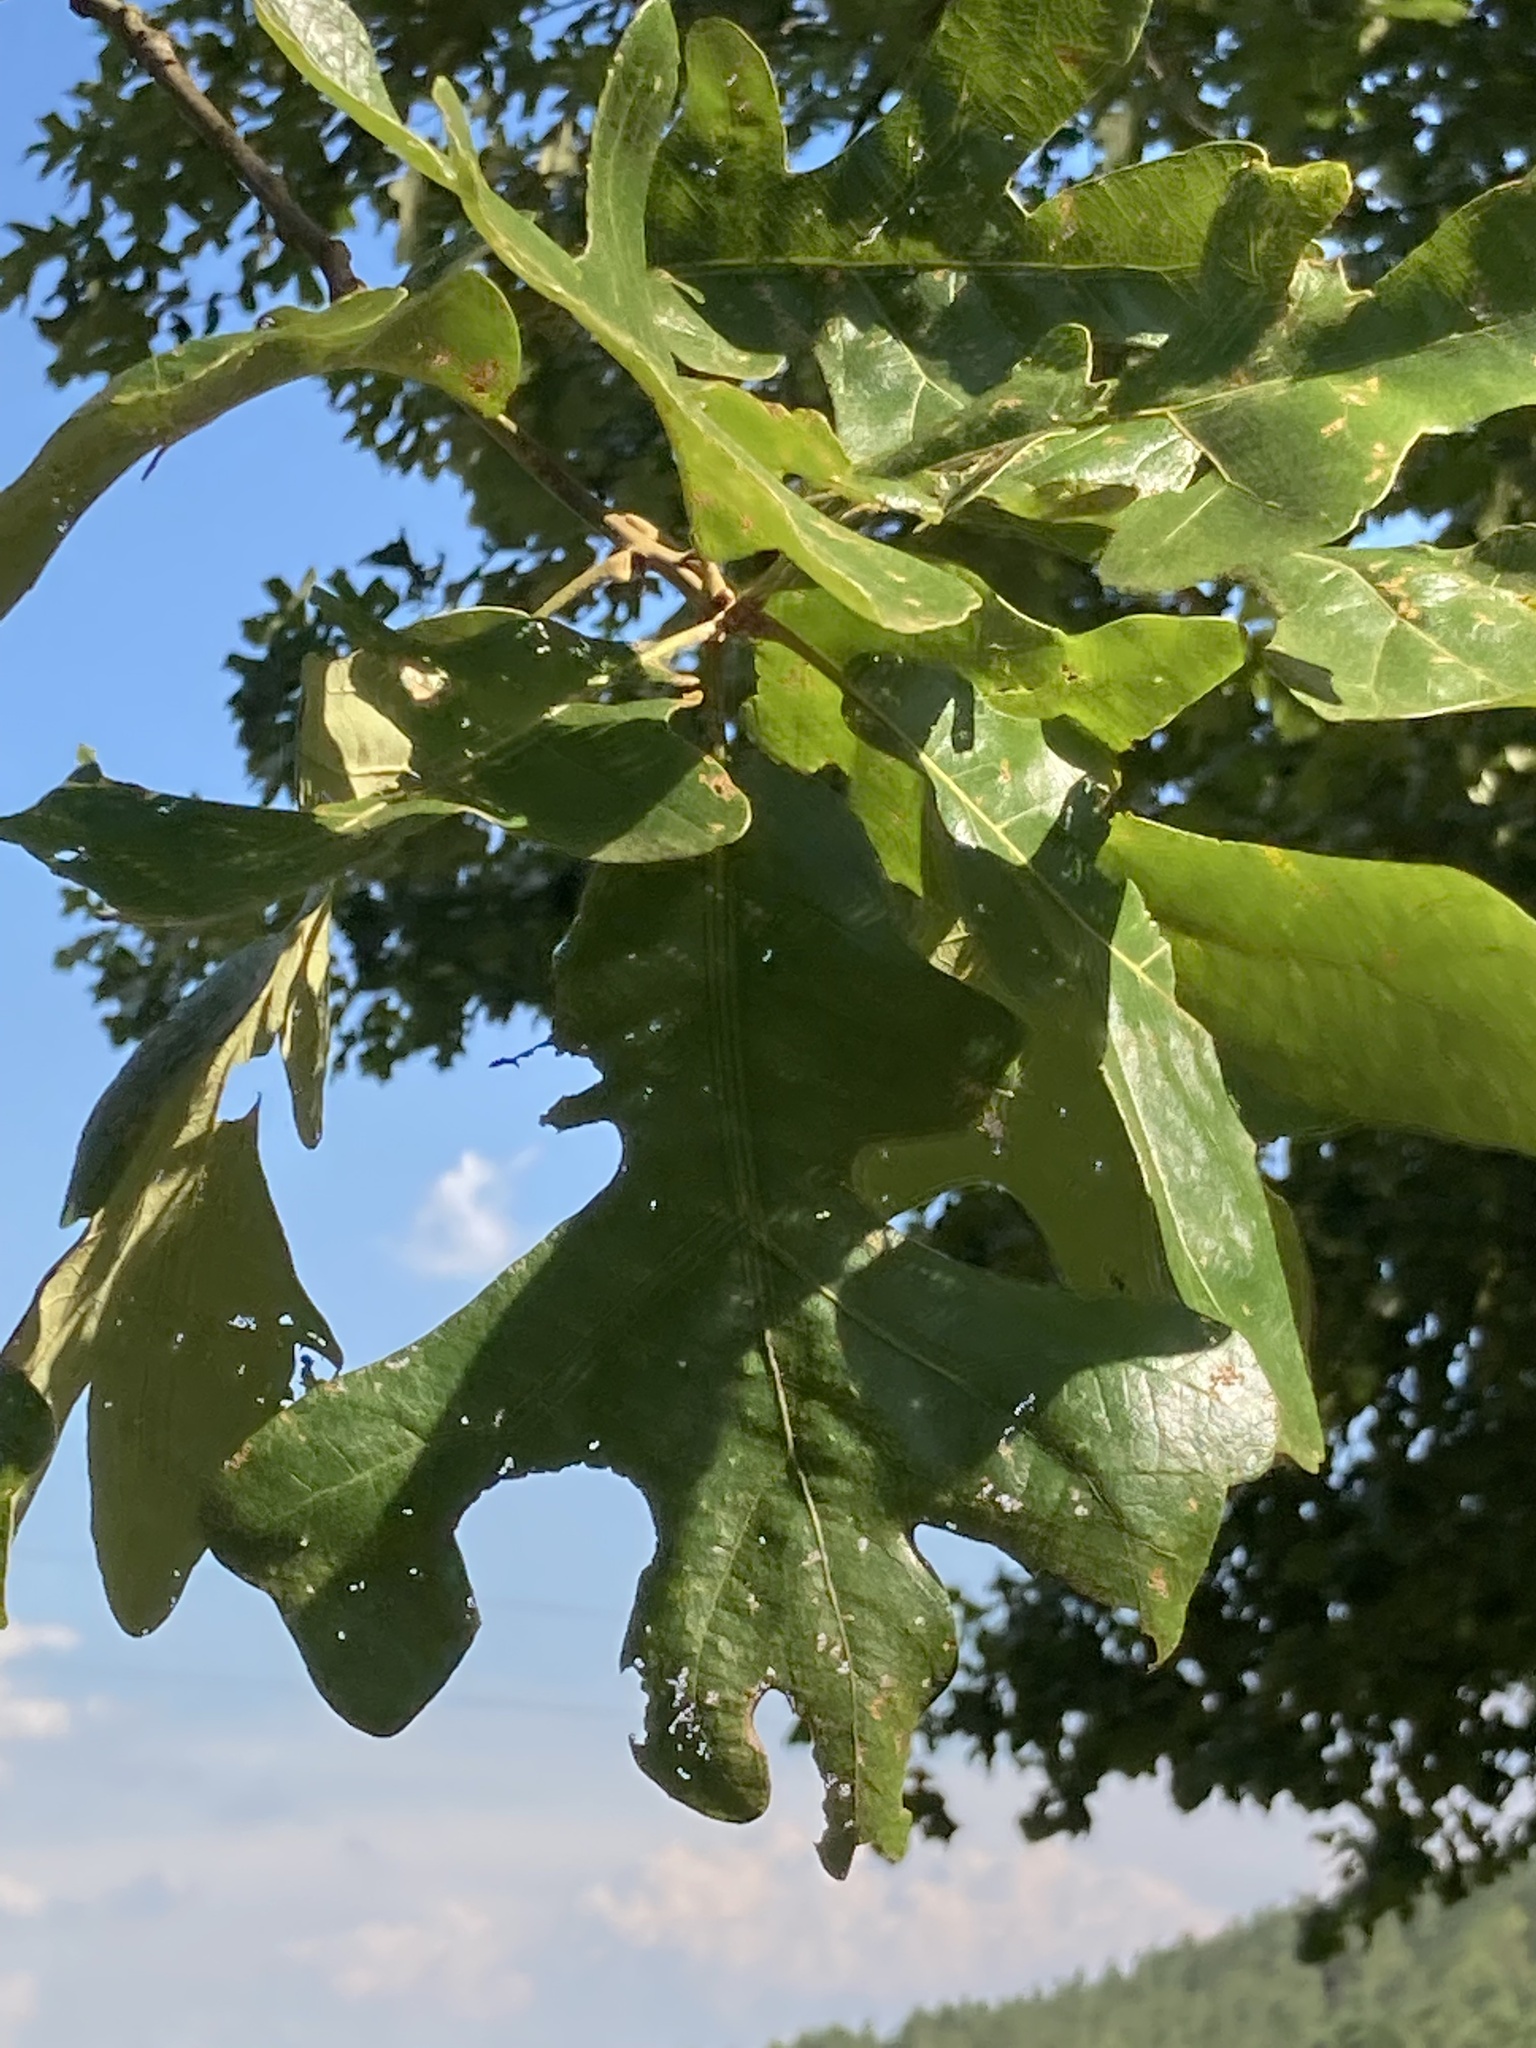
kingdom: Plantae
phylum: Tracheophyta
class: Magnoliopsida
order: Fagales
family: Fagaceae
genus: Quercus
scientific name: Quercus stellata
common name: Post oak
